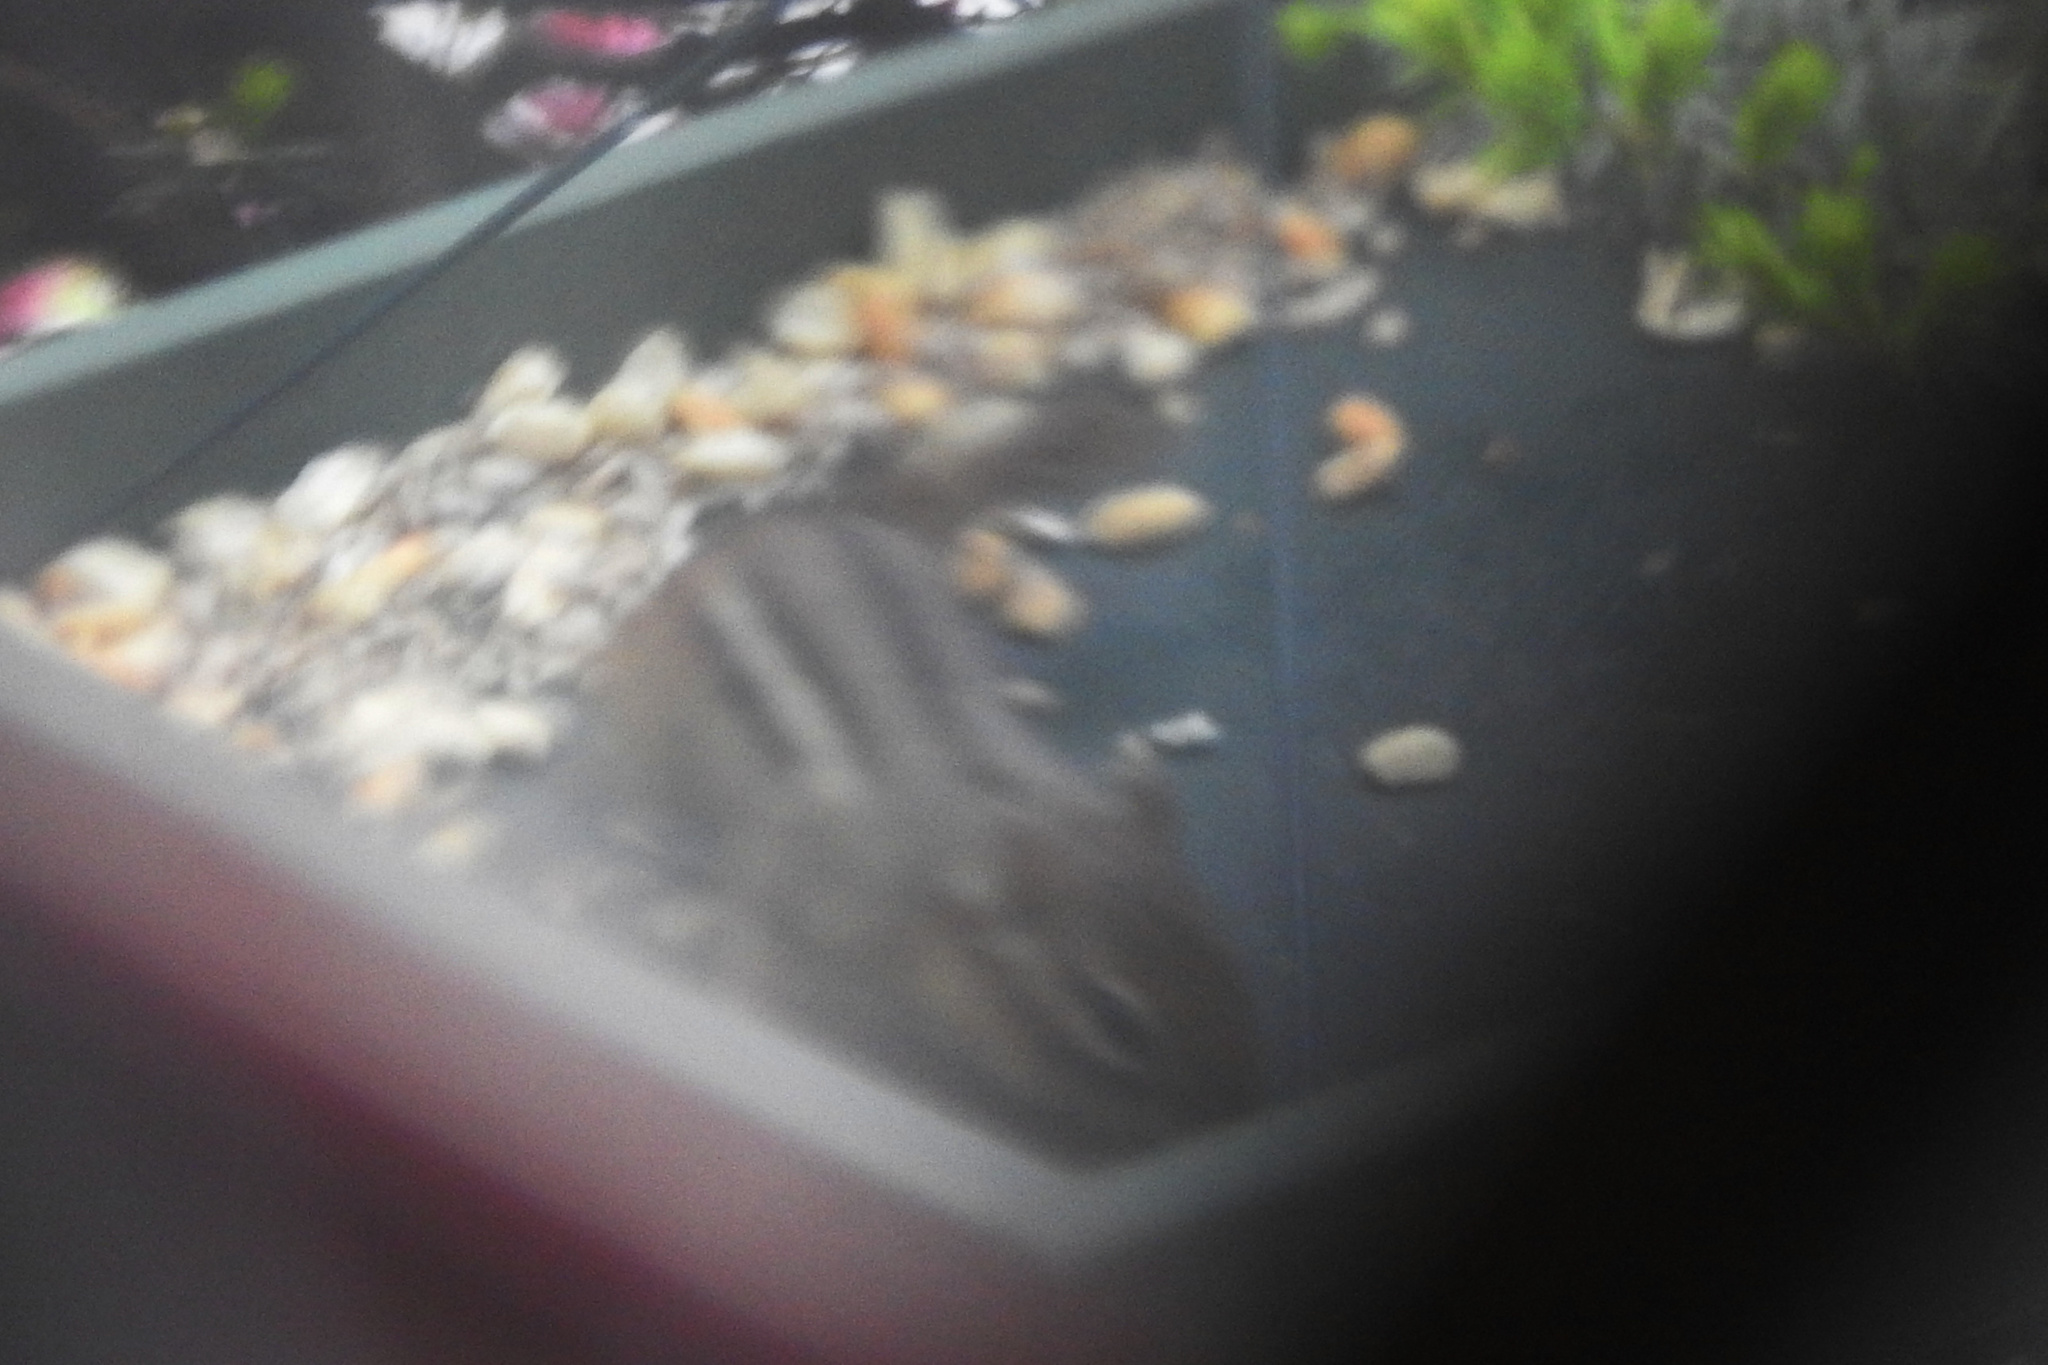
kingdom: Animalia
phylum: Chordata
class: Mammalia
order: Rodentia
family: Sciuridae
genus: Tamias
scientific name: Tamias striatus
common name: Eastern chipmunk
